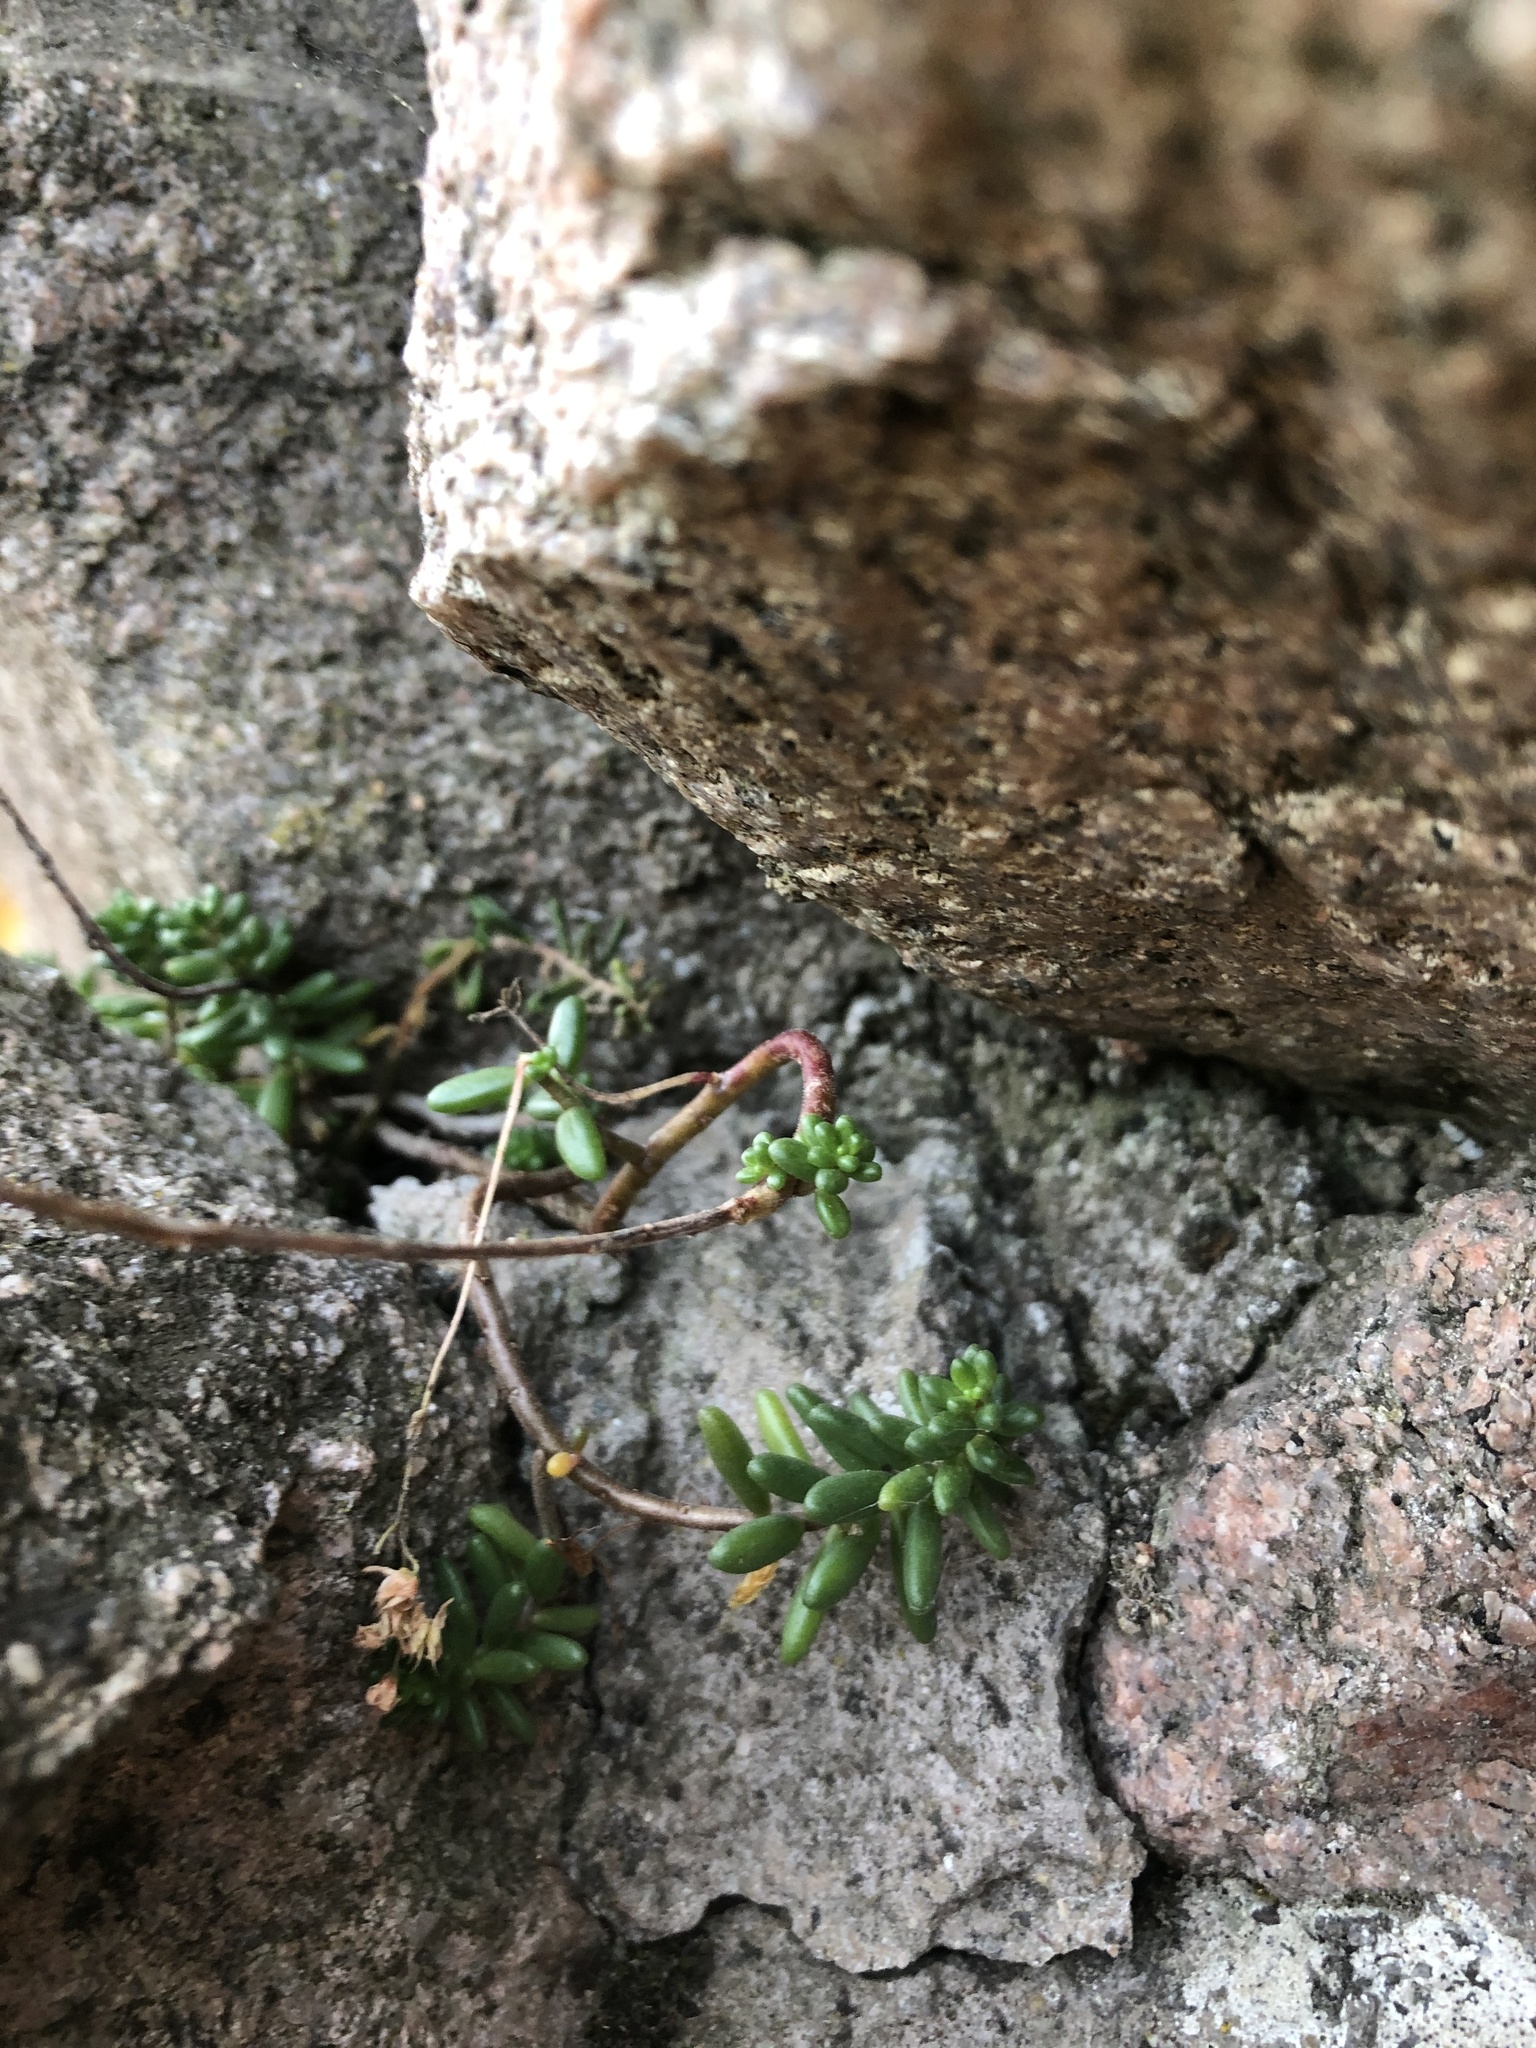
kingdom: Plantae
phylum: Tracheophyta
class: Magnoliopsida
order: Saxifragales
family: Crassulaceae
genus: Sedum
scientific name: Sedum album
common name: White stonecrop
